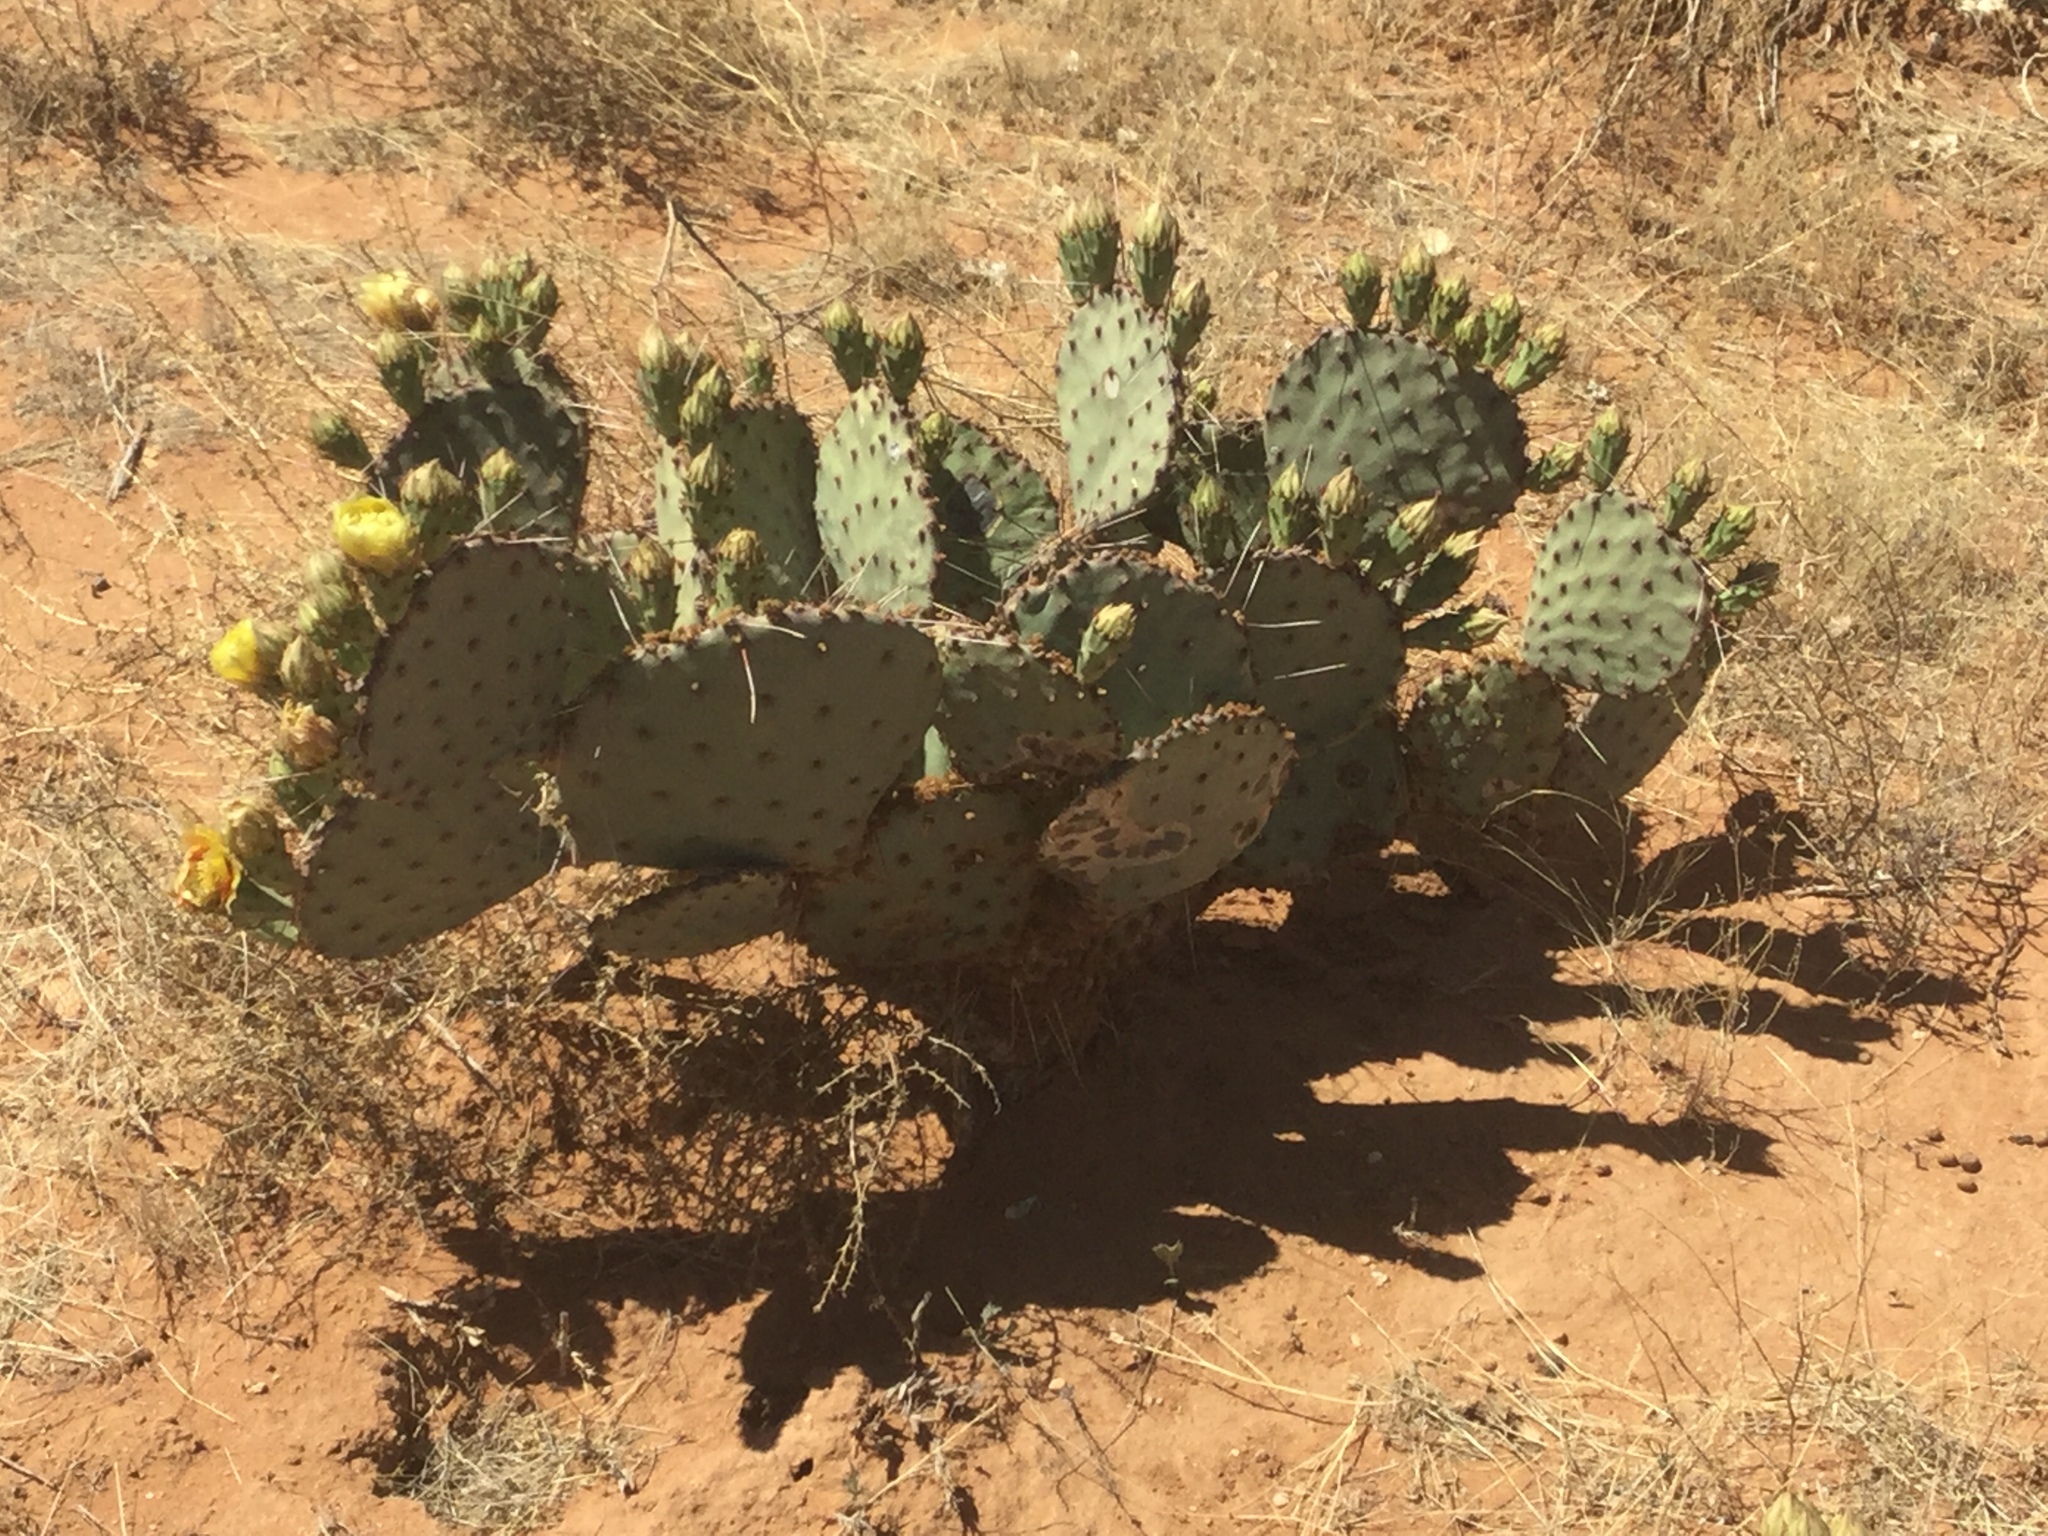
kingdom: Plantae
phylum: Tracheophyta
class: Magnoliopsida
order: Caryophyllales
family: Cactaceae
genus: Opuntia
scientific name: Opuntia engelmannii
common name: Cactus-apple
